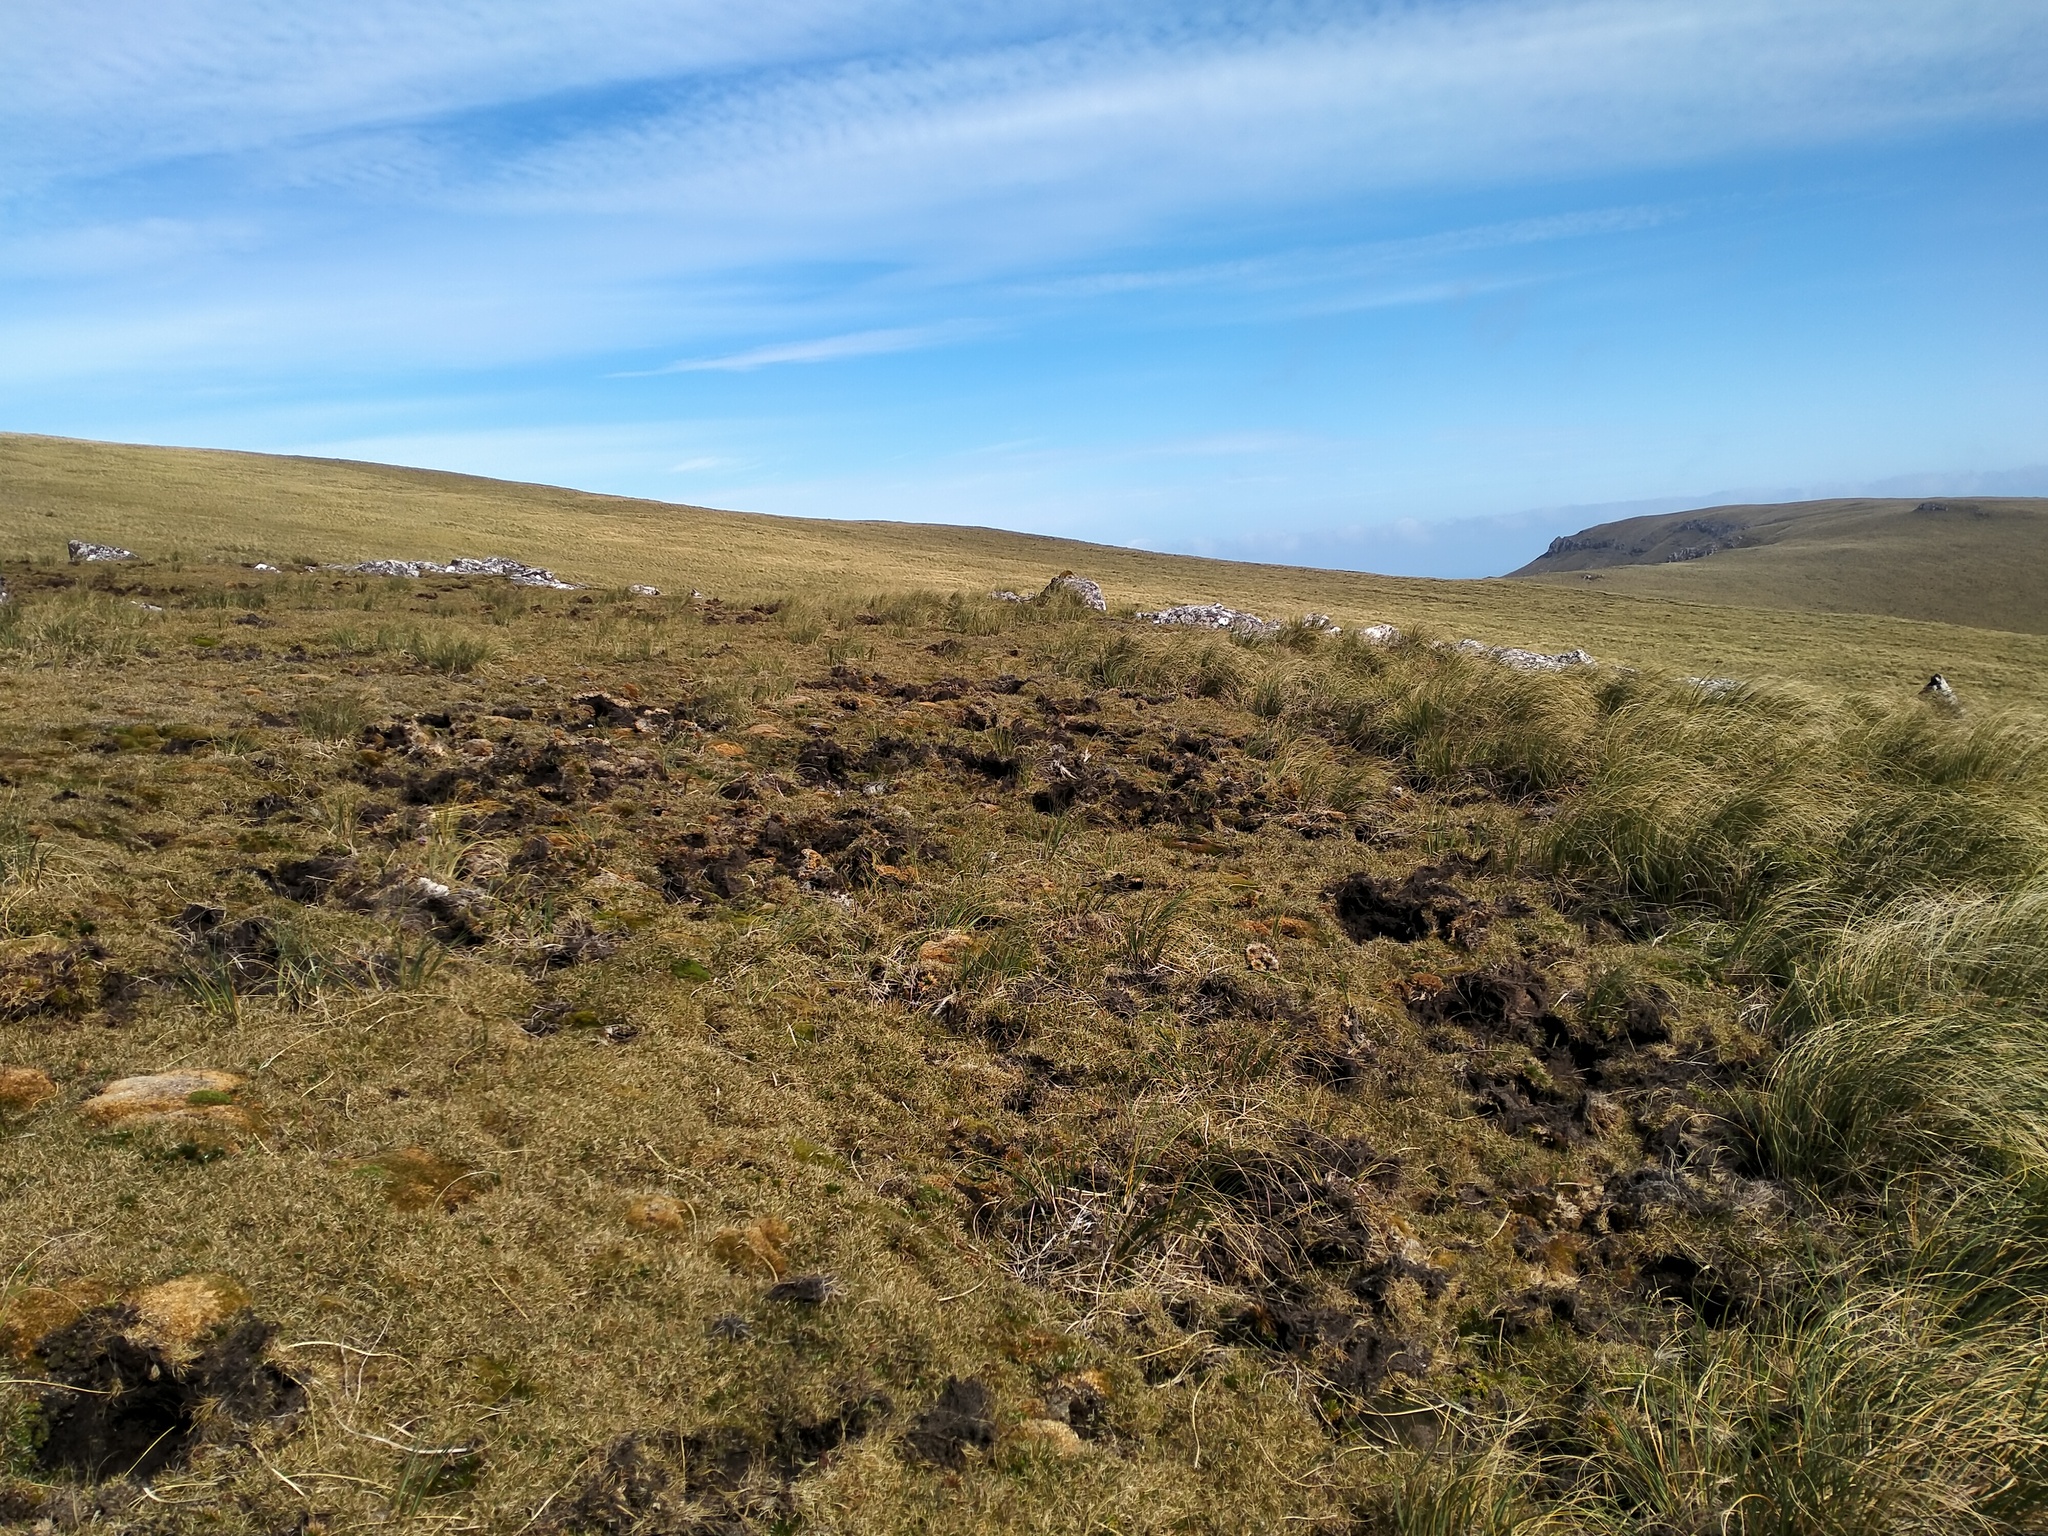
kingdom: Animalia
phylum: Chordata
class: Mammalia
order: Artiodactyla
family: Suidae
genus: Sus
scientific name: Sus scrofa
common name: Wild boar
